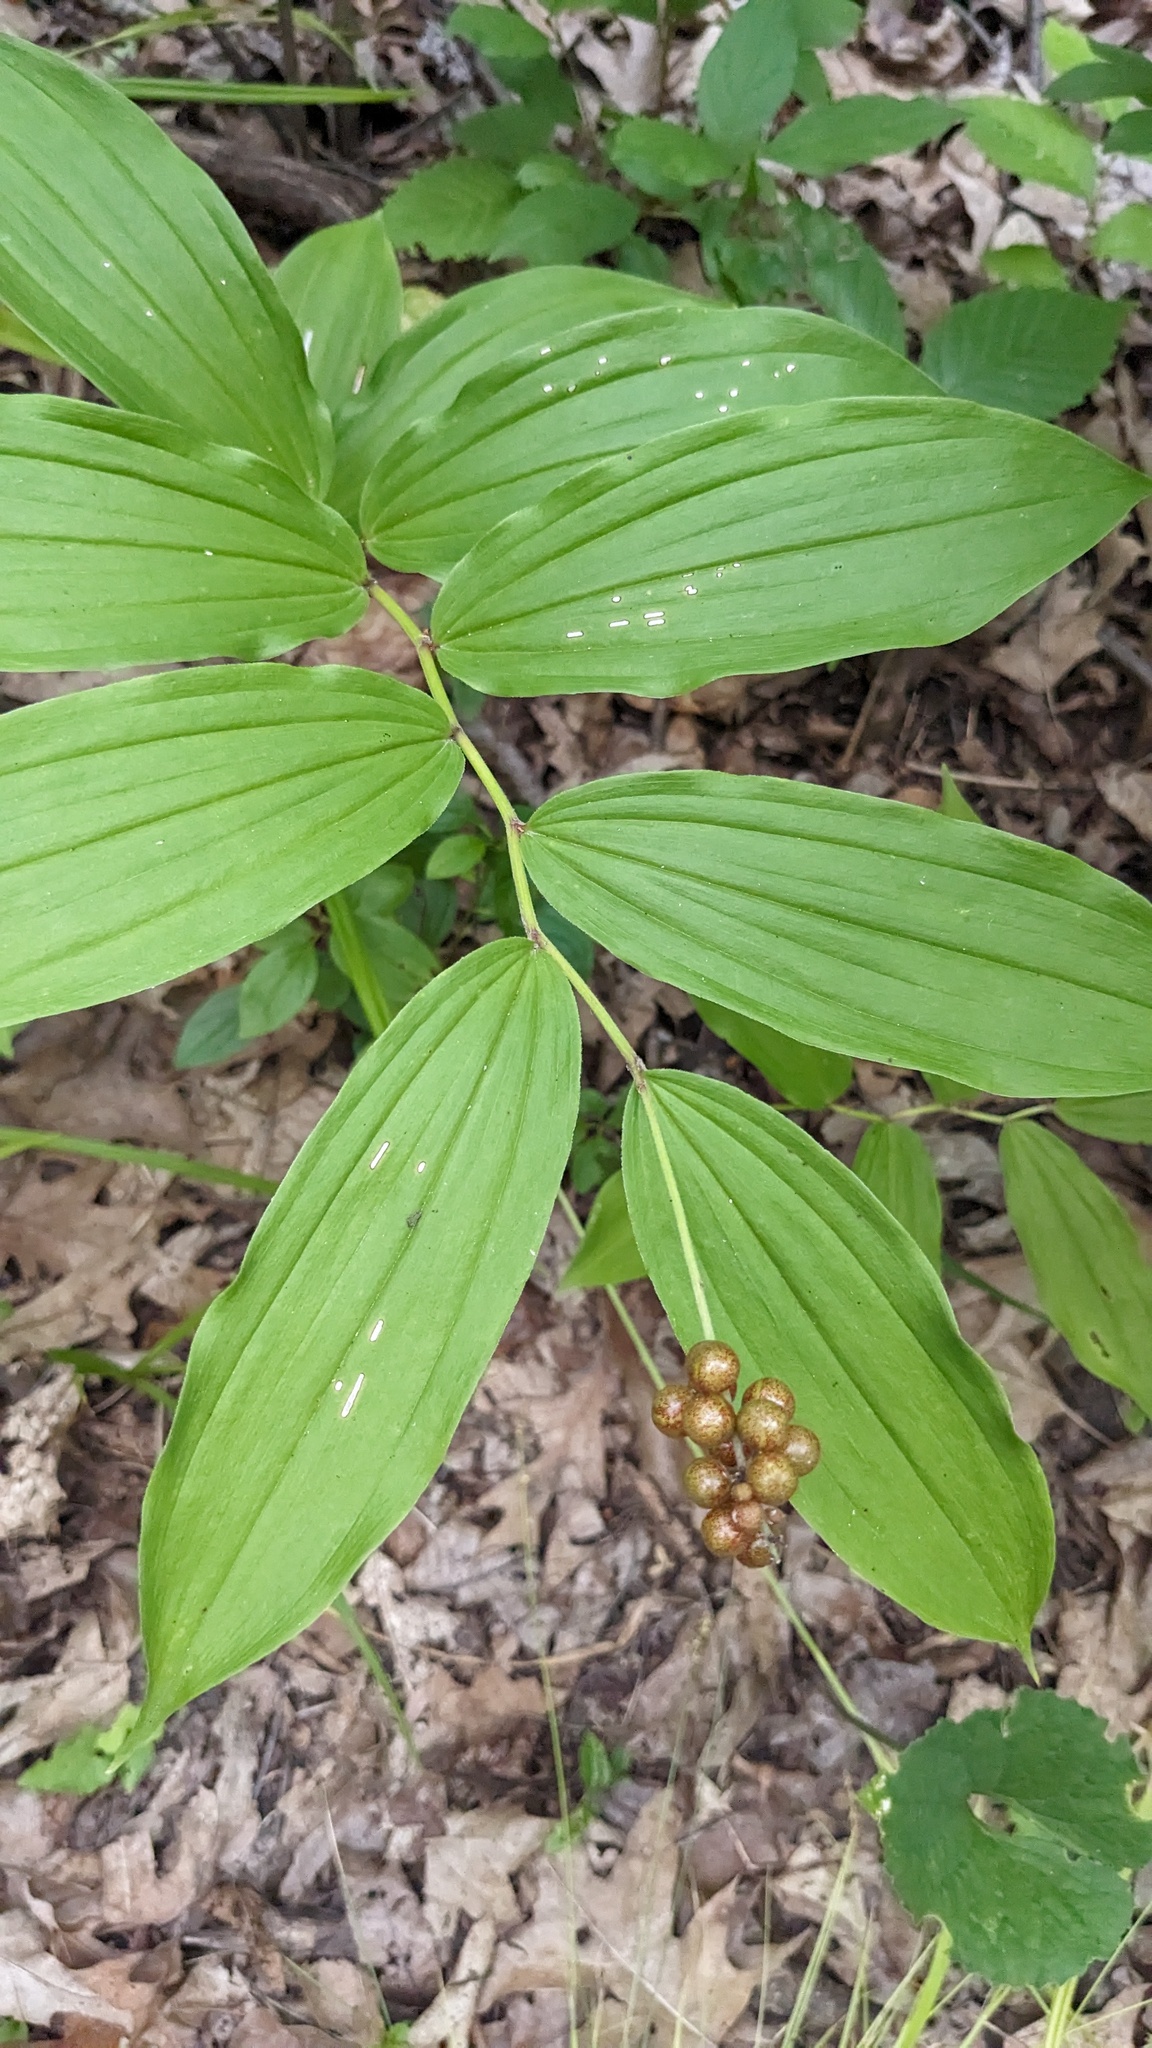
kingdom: Plantae
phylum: Tracheophyta
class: Liliopsida
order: Asparagales
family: Asparagaceae
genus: Maianthemum
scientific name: Maianthemum racemosum
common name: False spikenard
